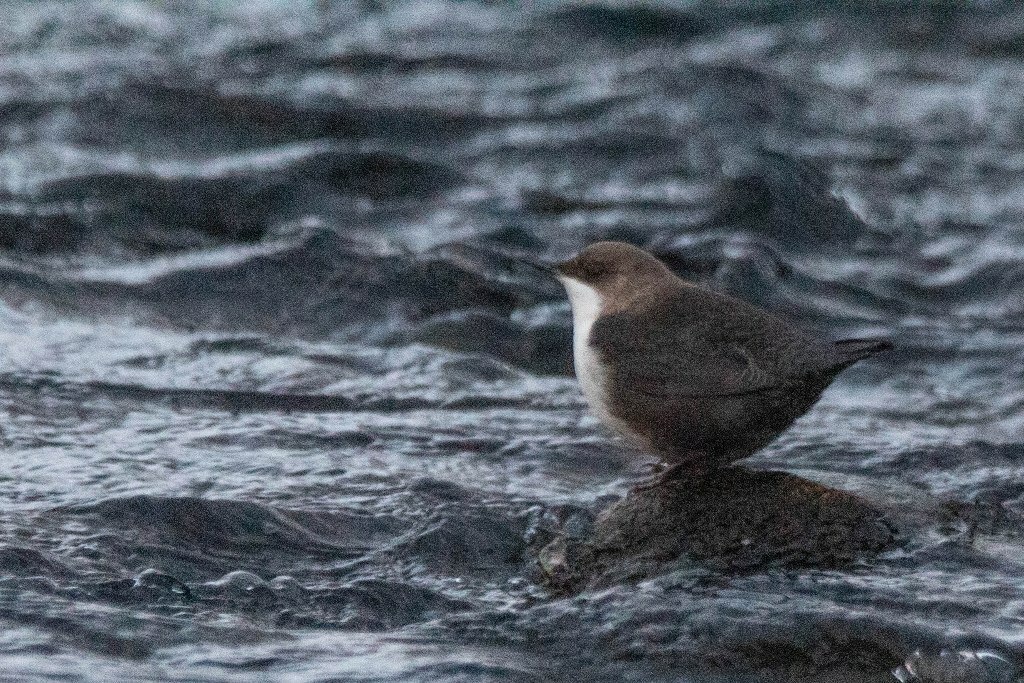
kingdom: Animalia
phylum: Chordata
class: Aves
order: Passeriformes
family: Cinclidae
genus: Cinclus
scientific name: Cinclus cinclus
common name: White-throated dipper
